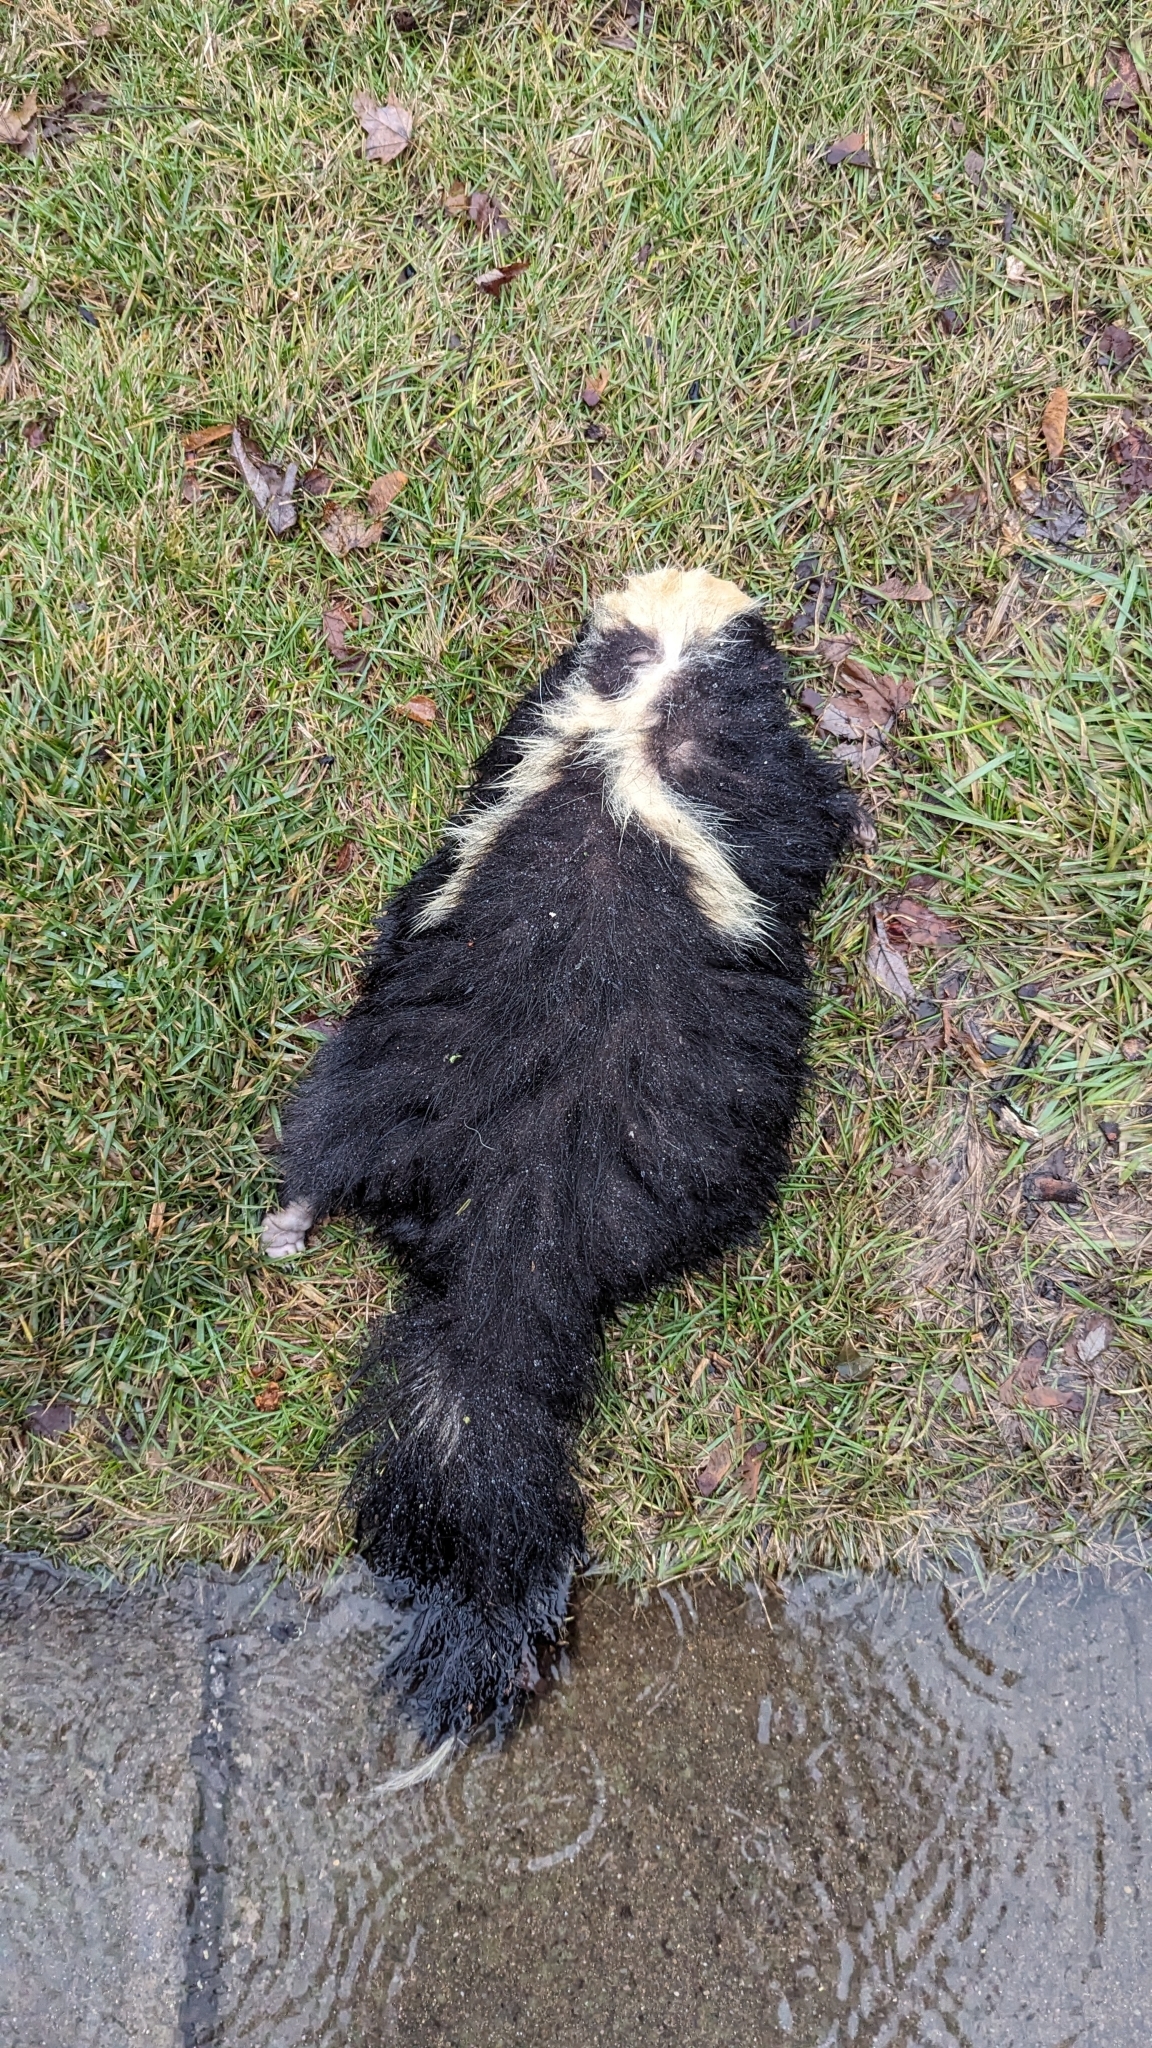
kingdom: Animalia
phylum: Chordata
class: Mammalia
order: Carnivora
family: Mephitidae
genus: Mephitis
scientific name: Mephitis mephitis
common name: Striped skunk
